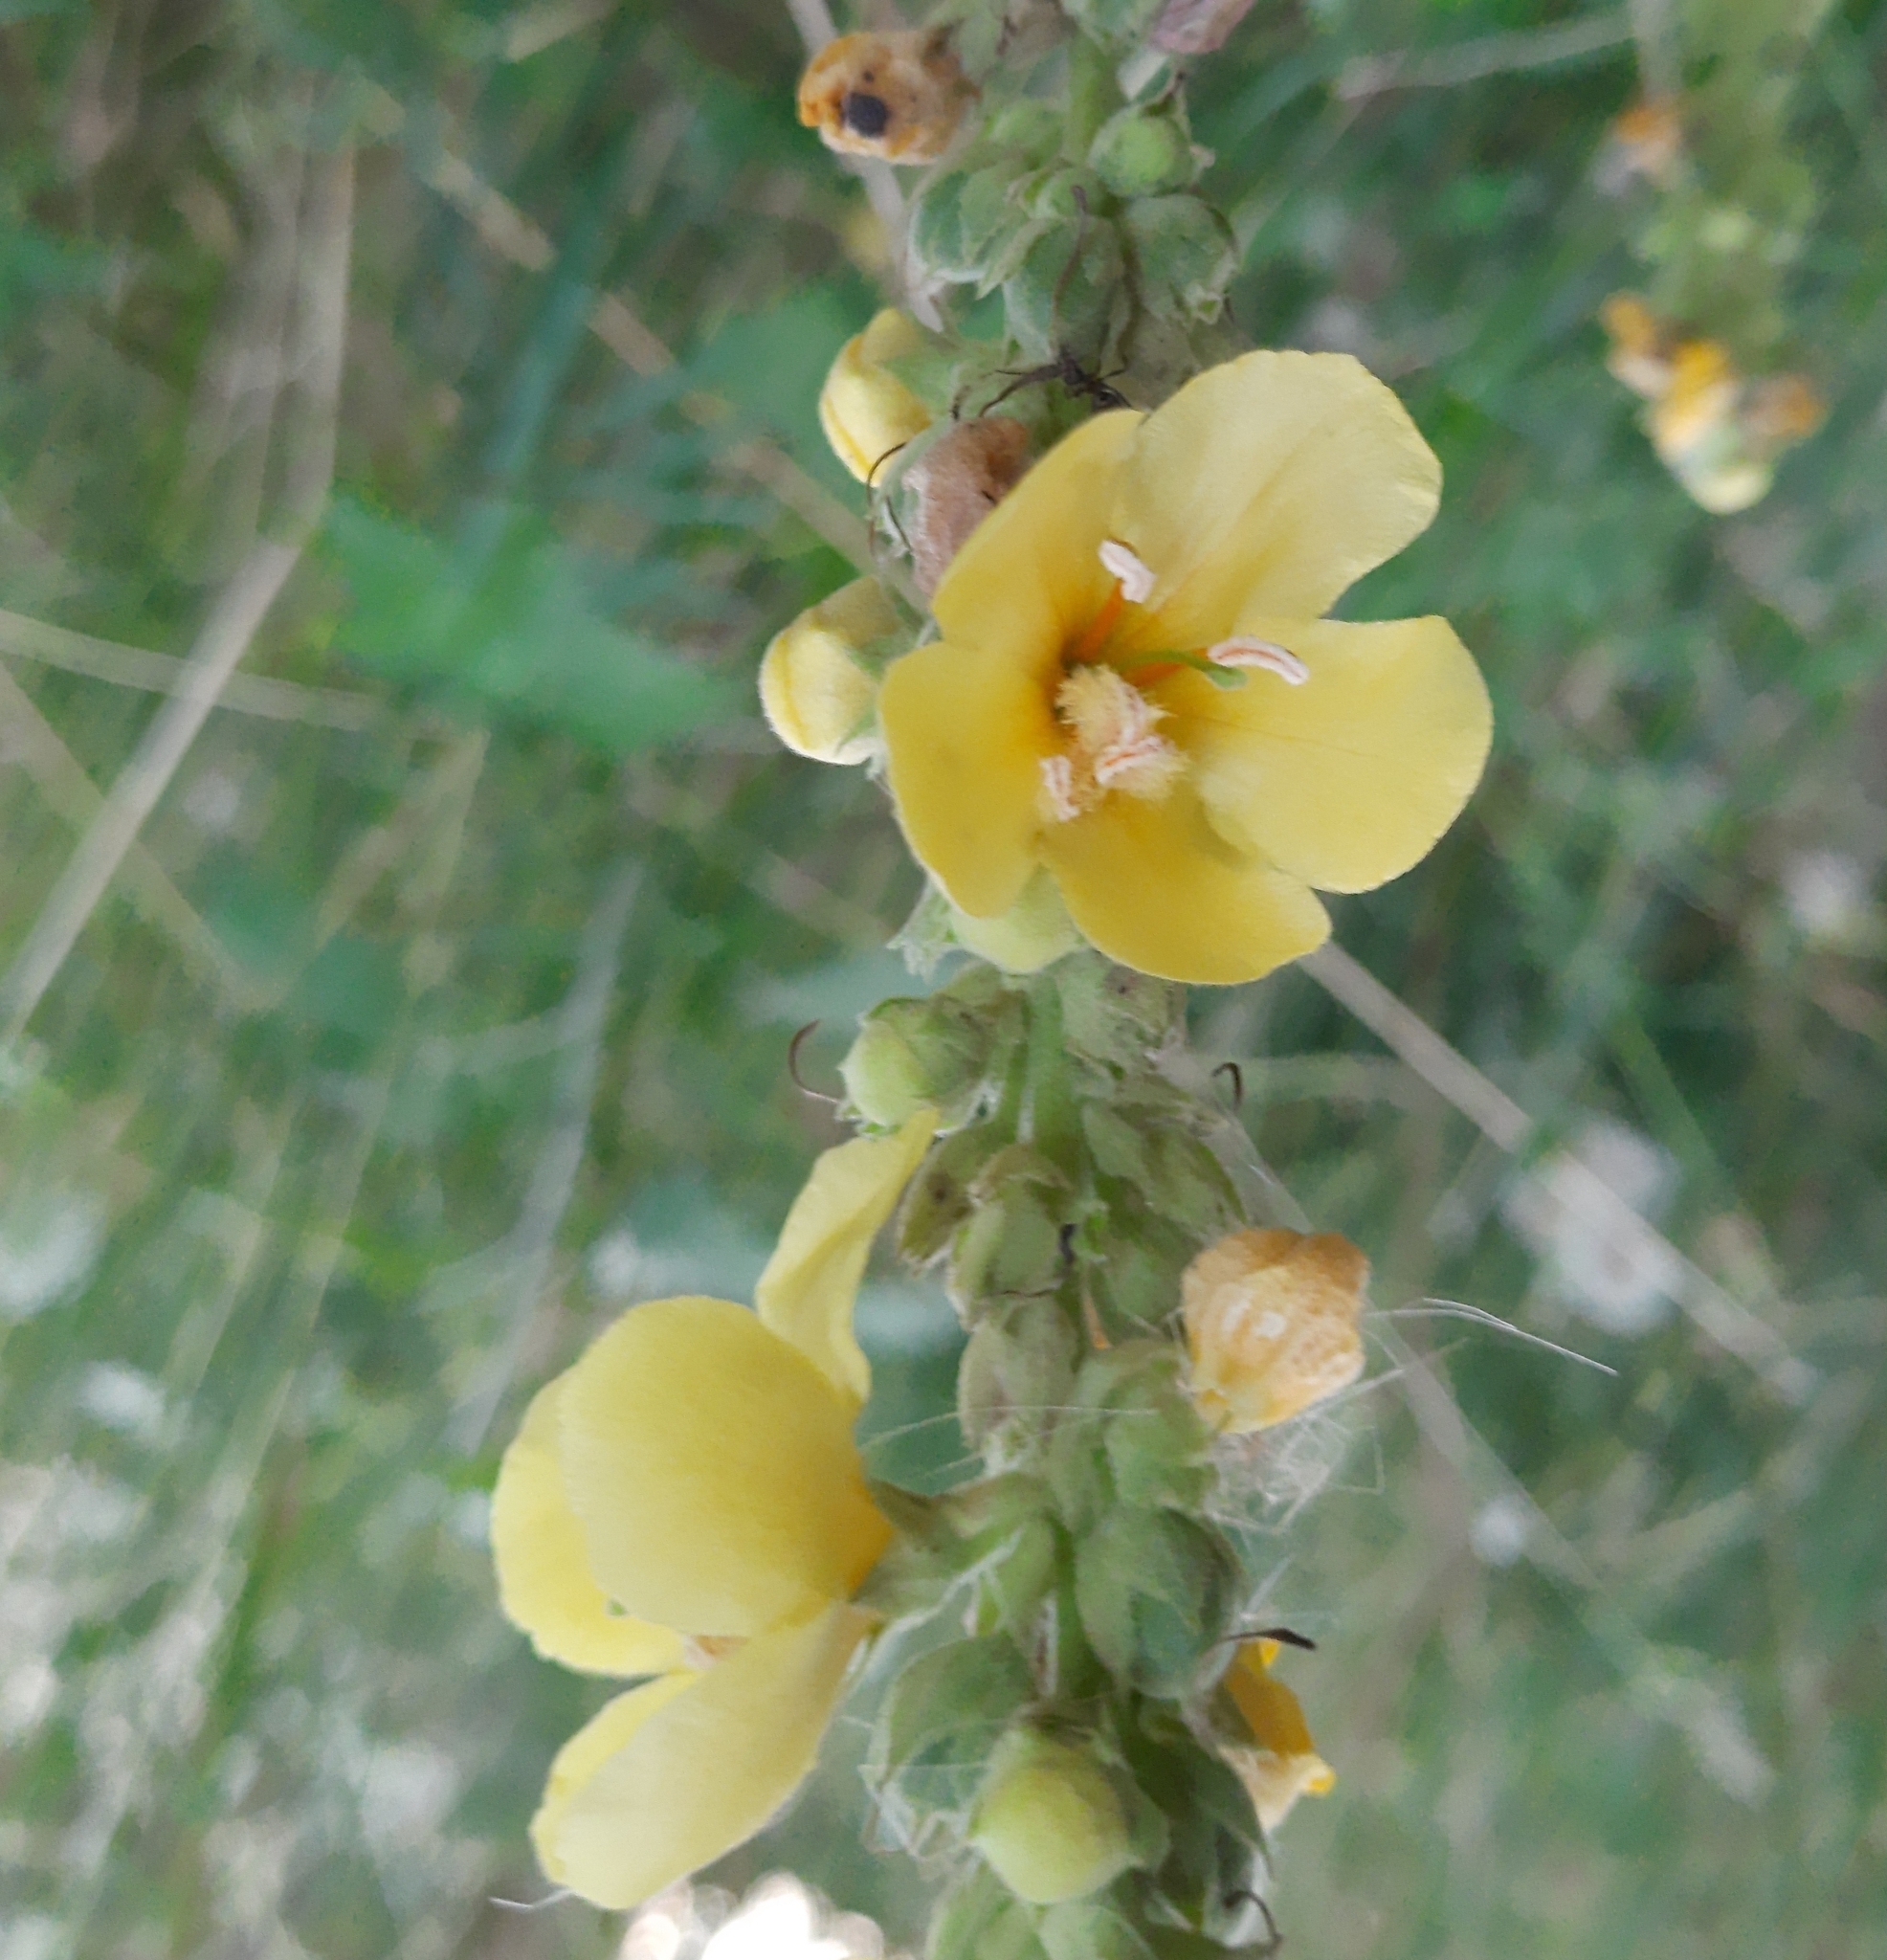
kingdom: Plantae
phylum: Tracheophyta
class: Magnoliopsida
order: Lamiales
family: Scrophulariaceae
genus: Verbascum
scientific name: Verbascum phlomoides
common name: Orange mullein
